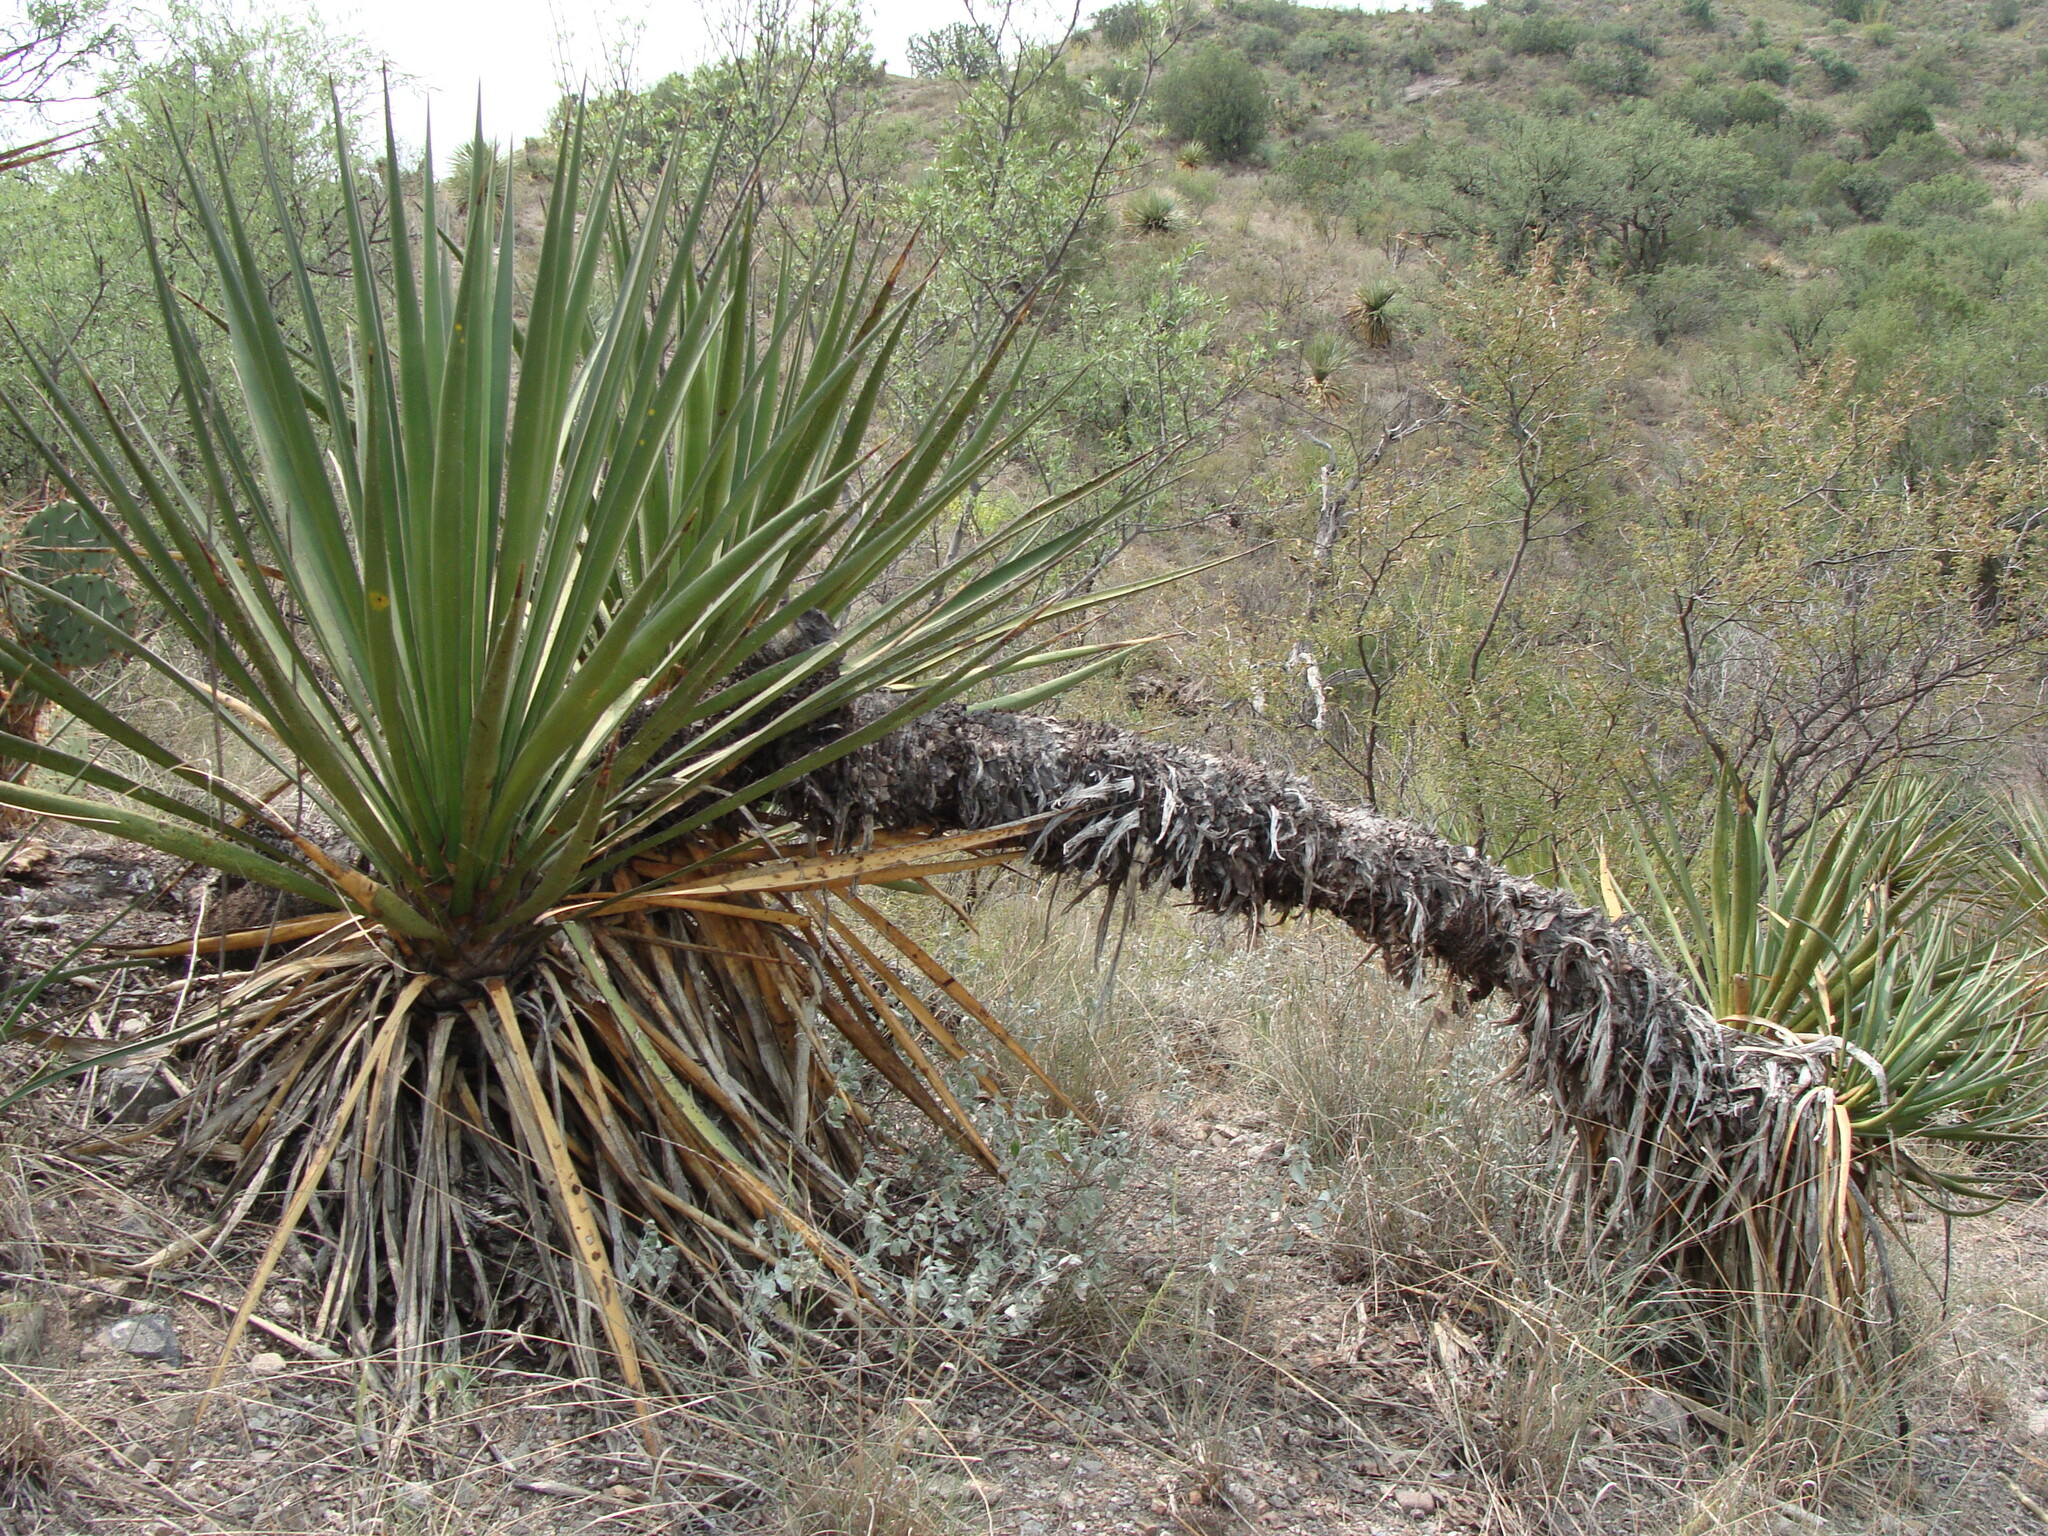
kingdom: Plantae
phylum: Tracheophyta
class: Liliopsida
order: Asparagales
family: Asparagaceae
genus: Yucca
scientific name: Yucca madrensis
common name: Hoary yucca
